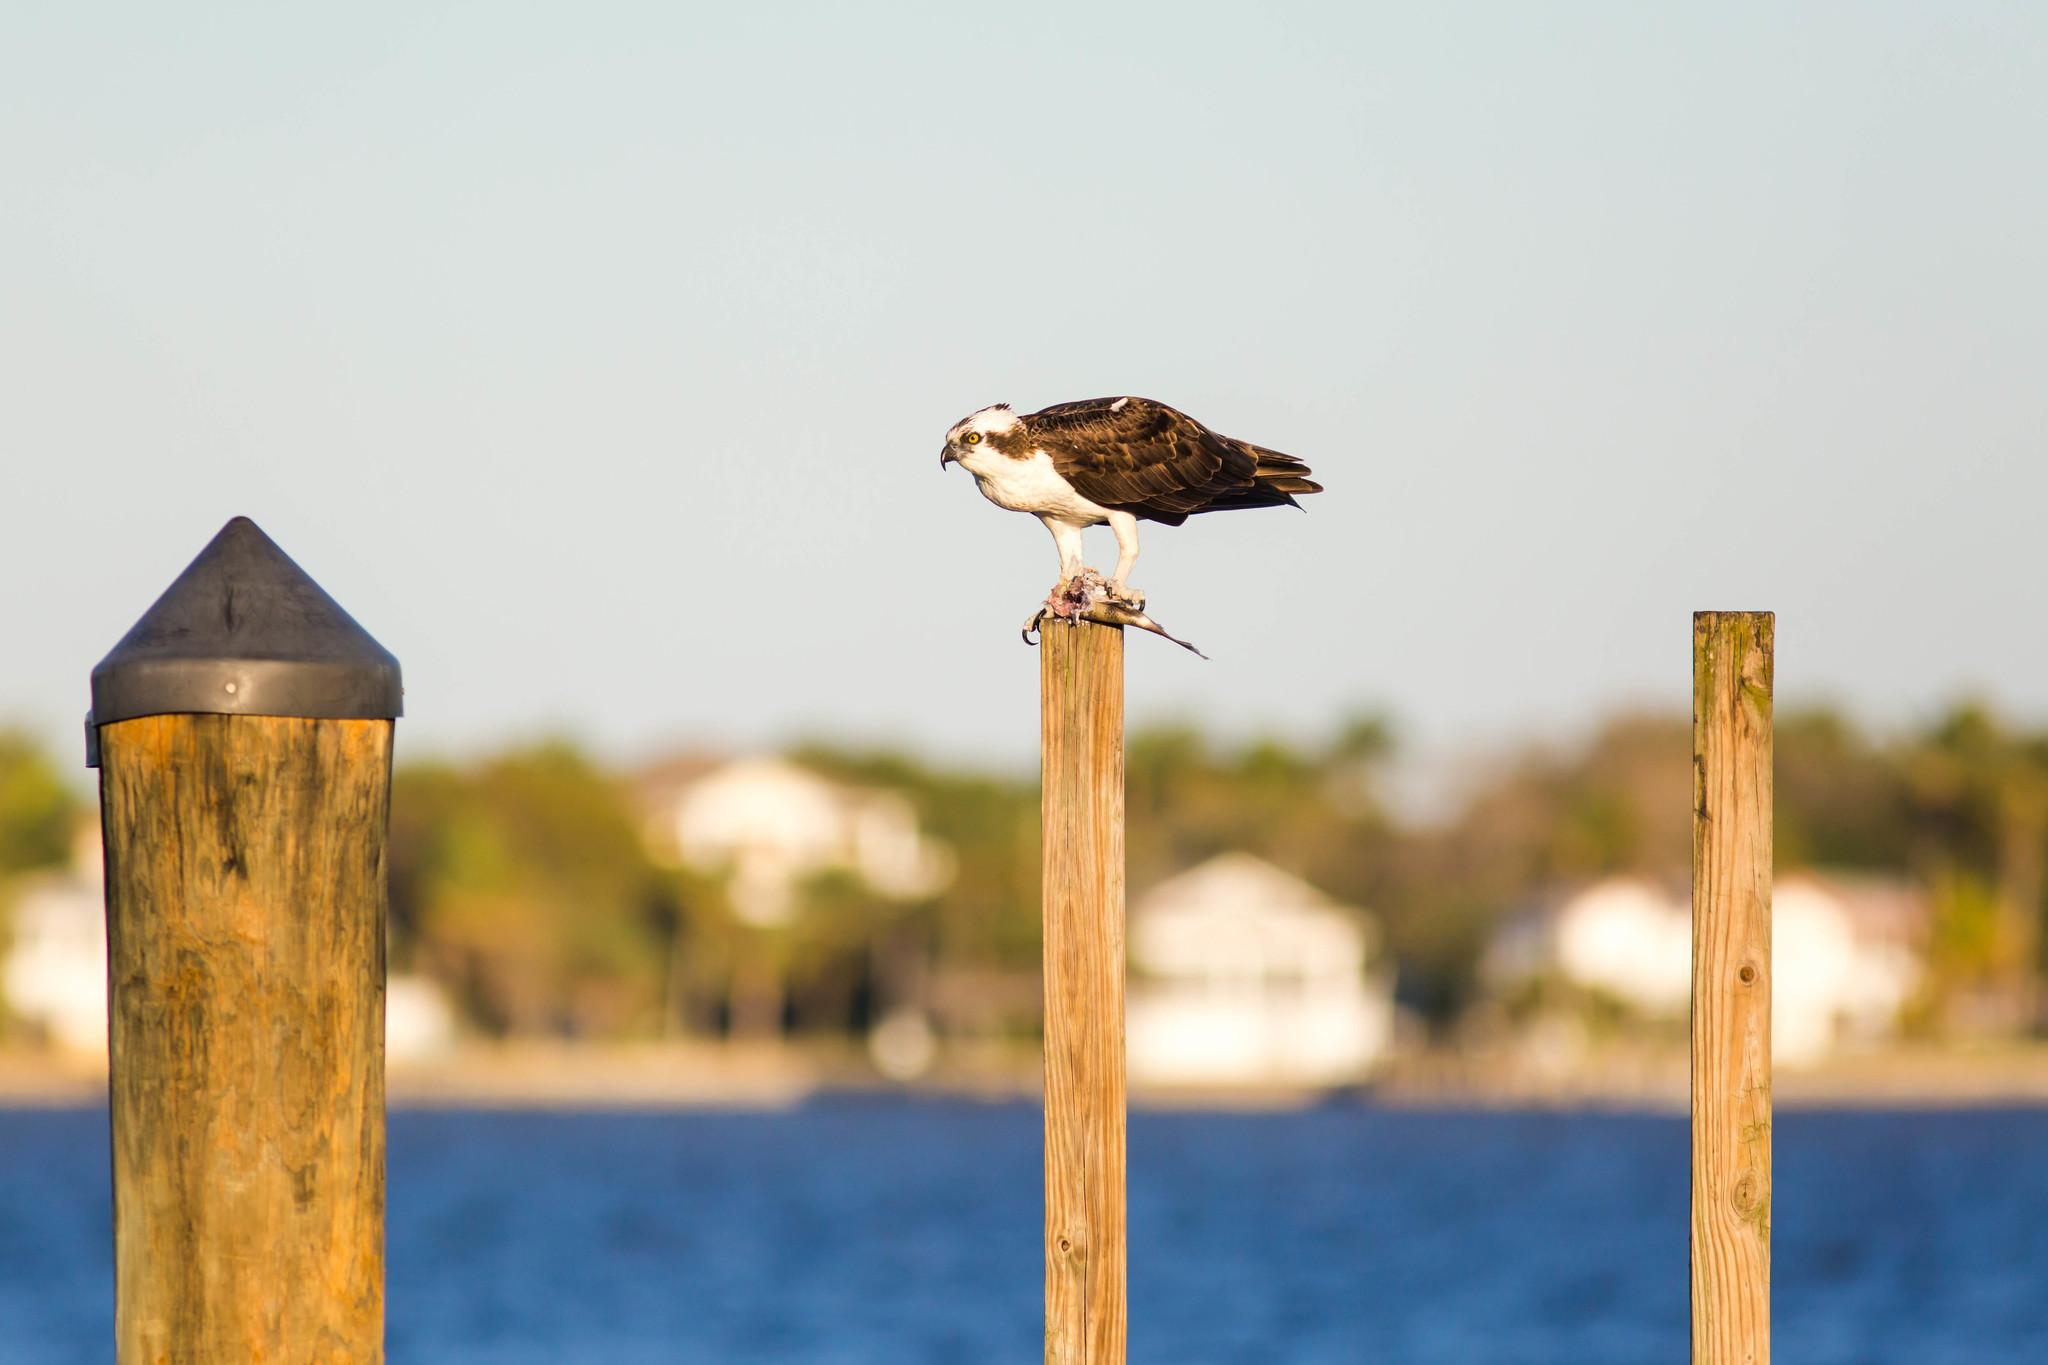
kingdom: Animalia
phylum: Chordata
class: Aves
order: Accipitriformes
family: Pandionidae
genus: Pandion
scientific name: Pandion haliaetus
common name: Osprey
